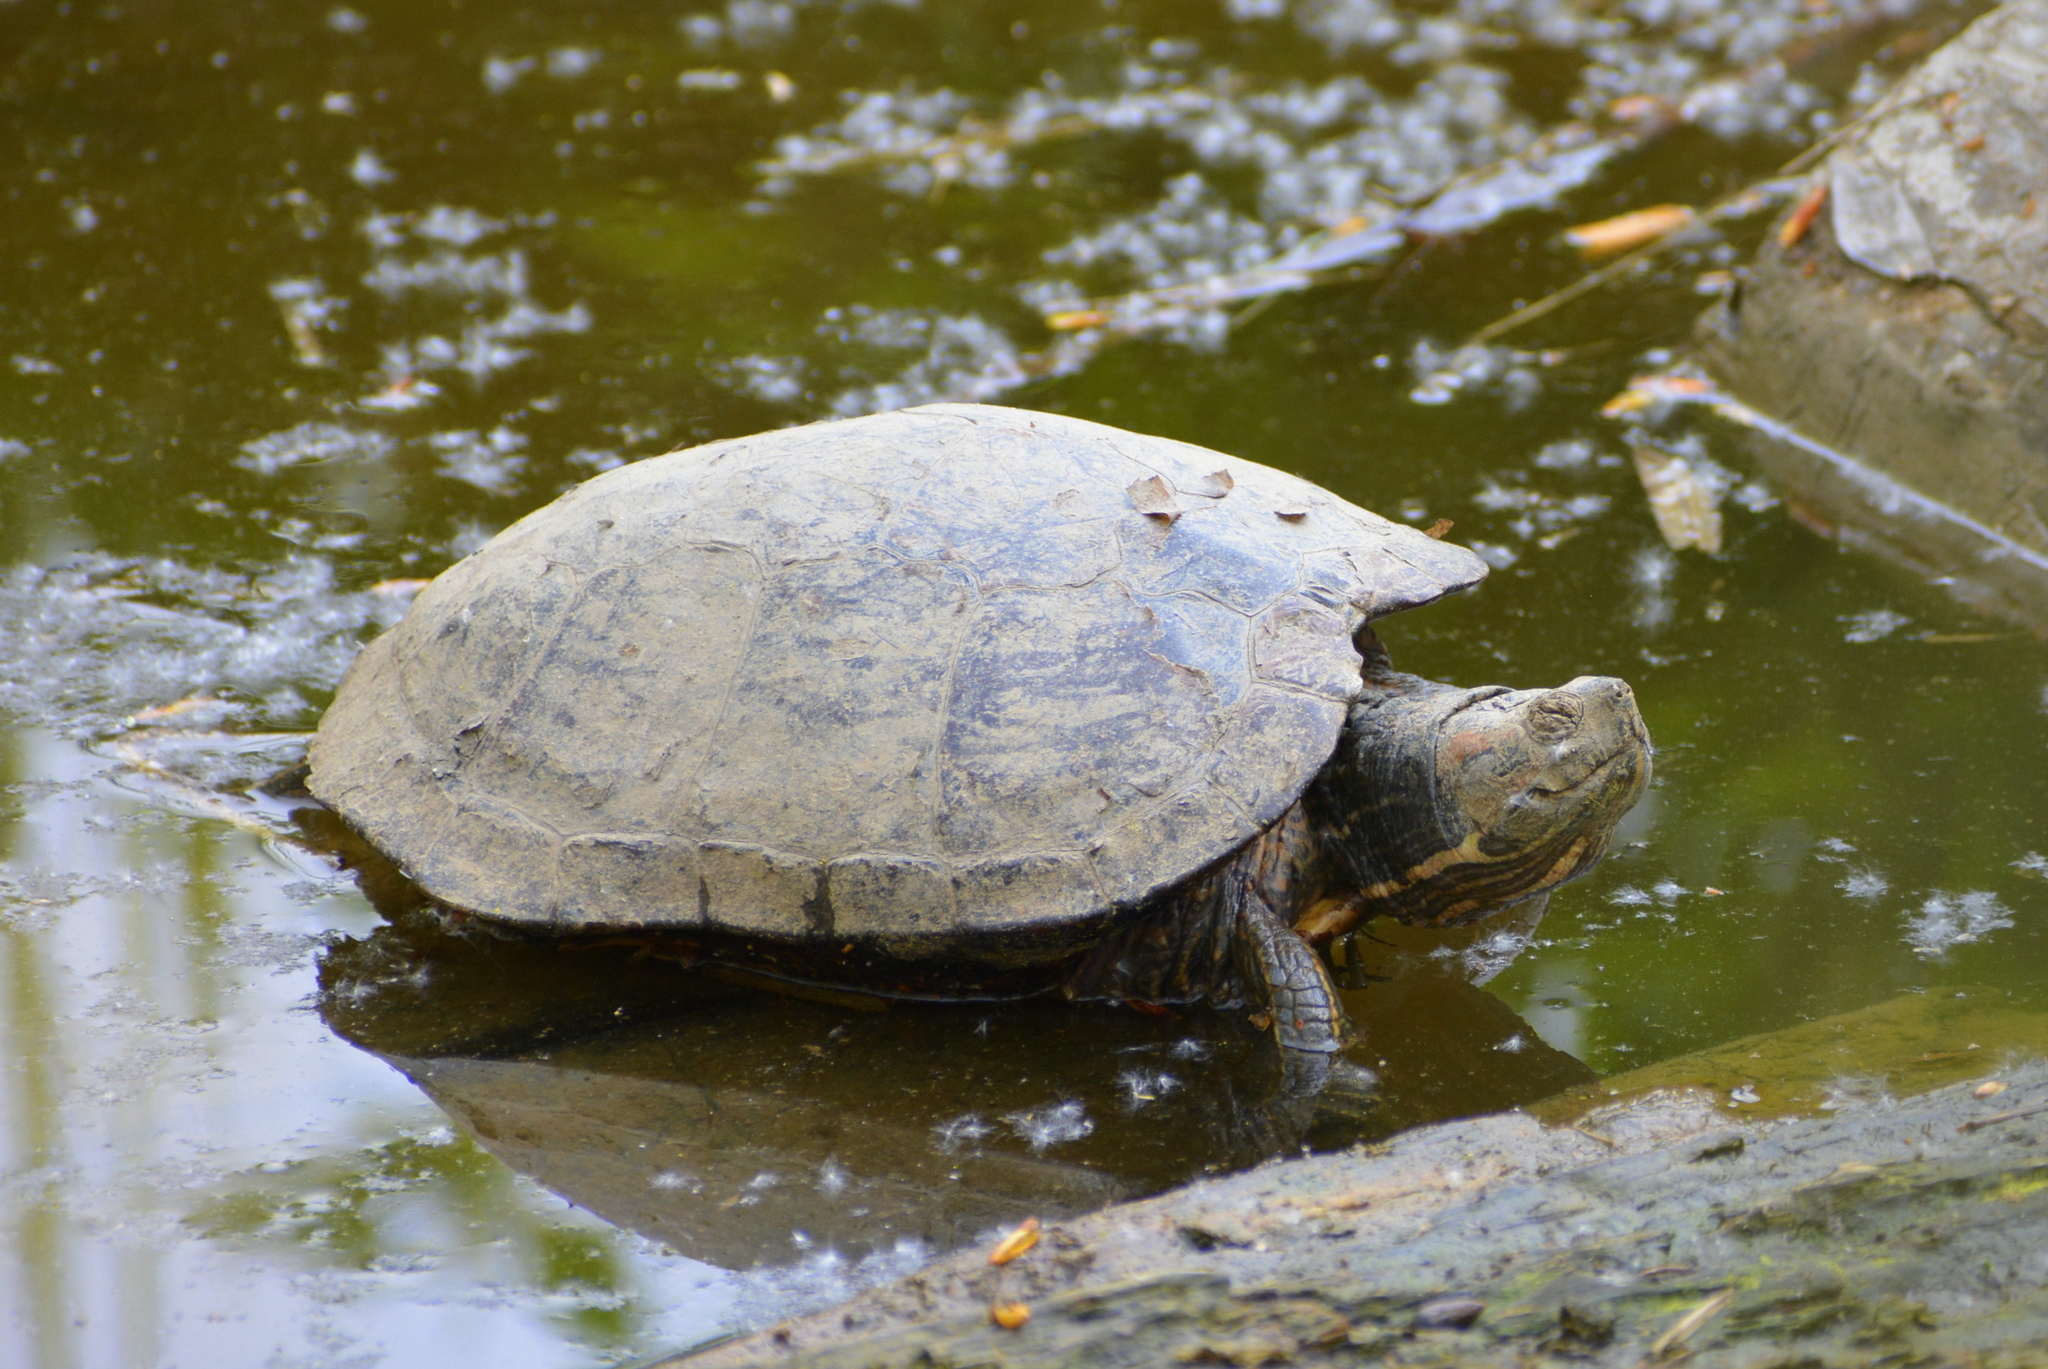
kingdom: Animalia
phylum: Chordata
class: Testudines
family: Emydidae
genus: Trachemys
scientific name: Trachemys scripta
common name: Slider
